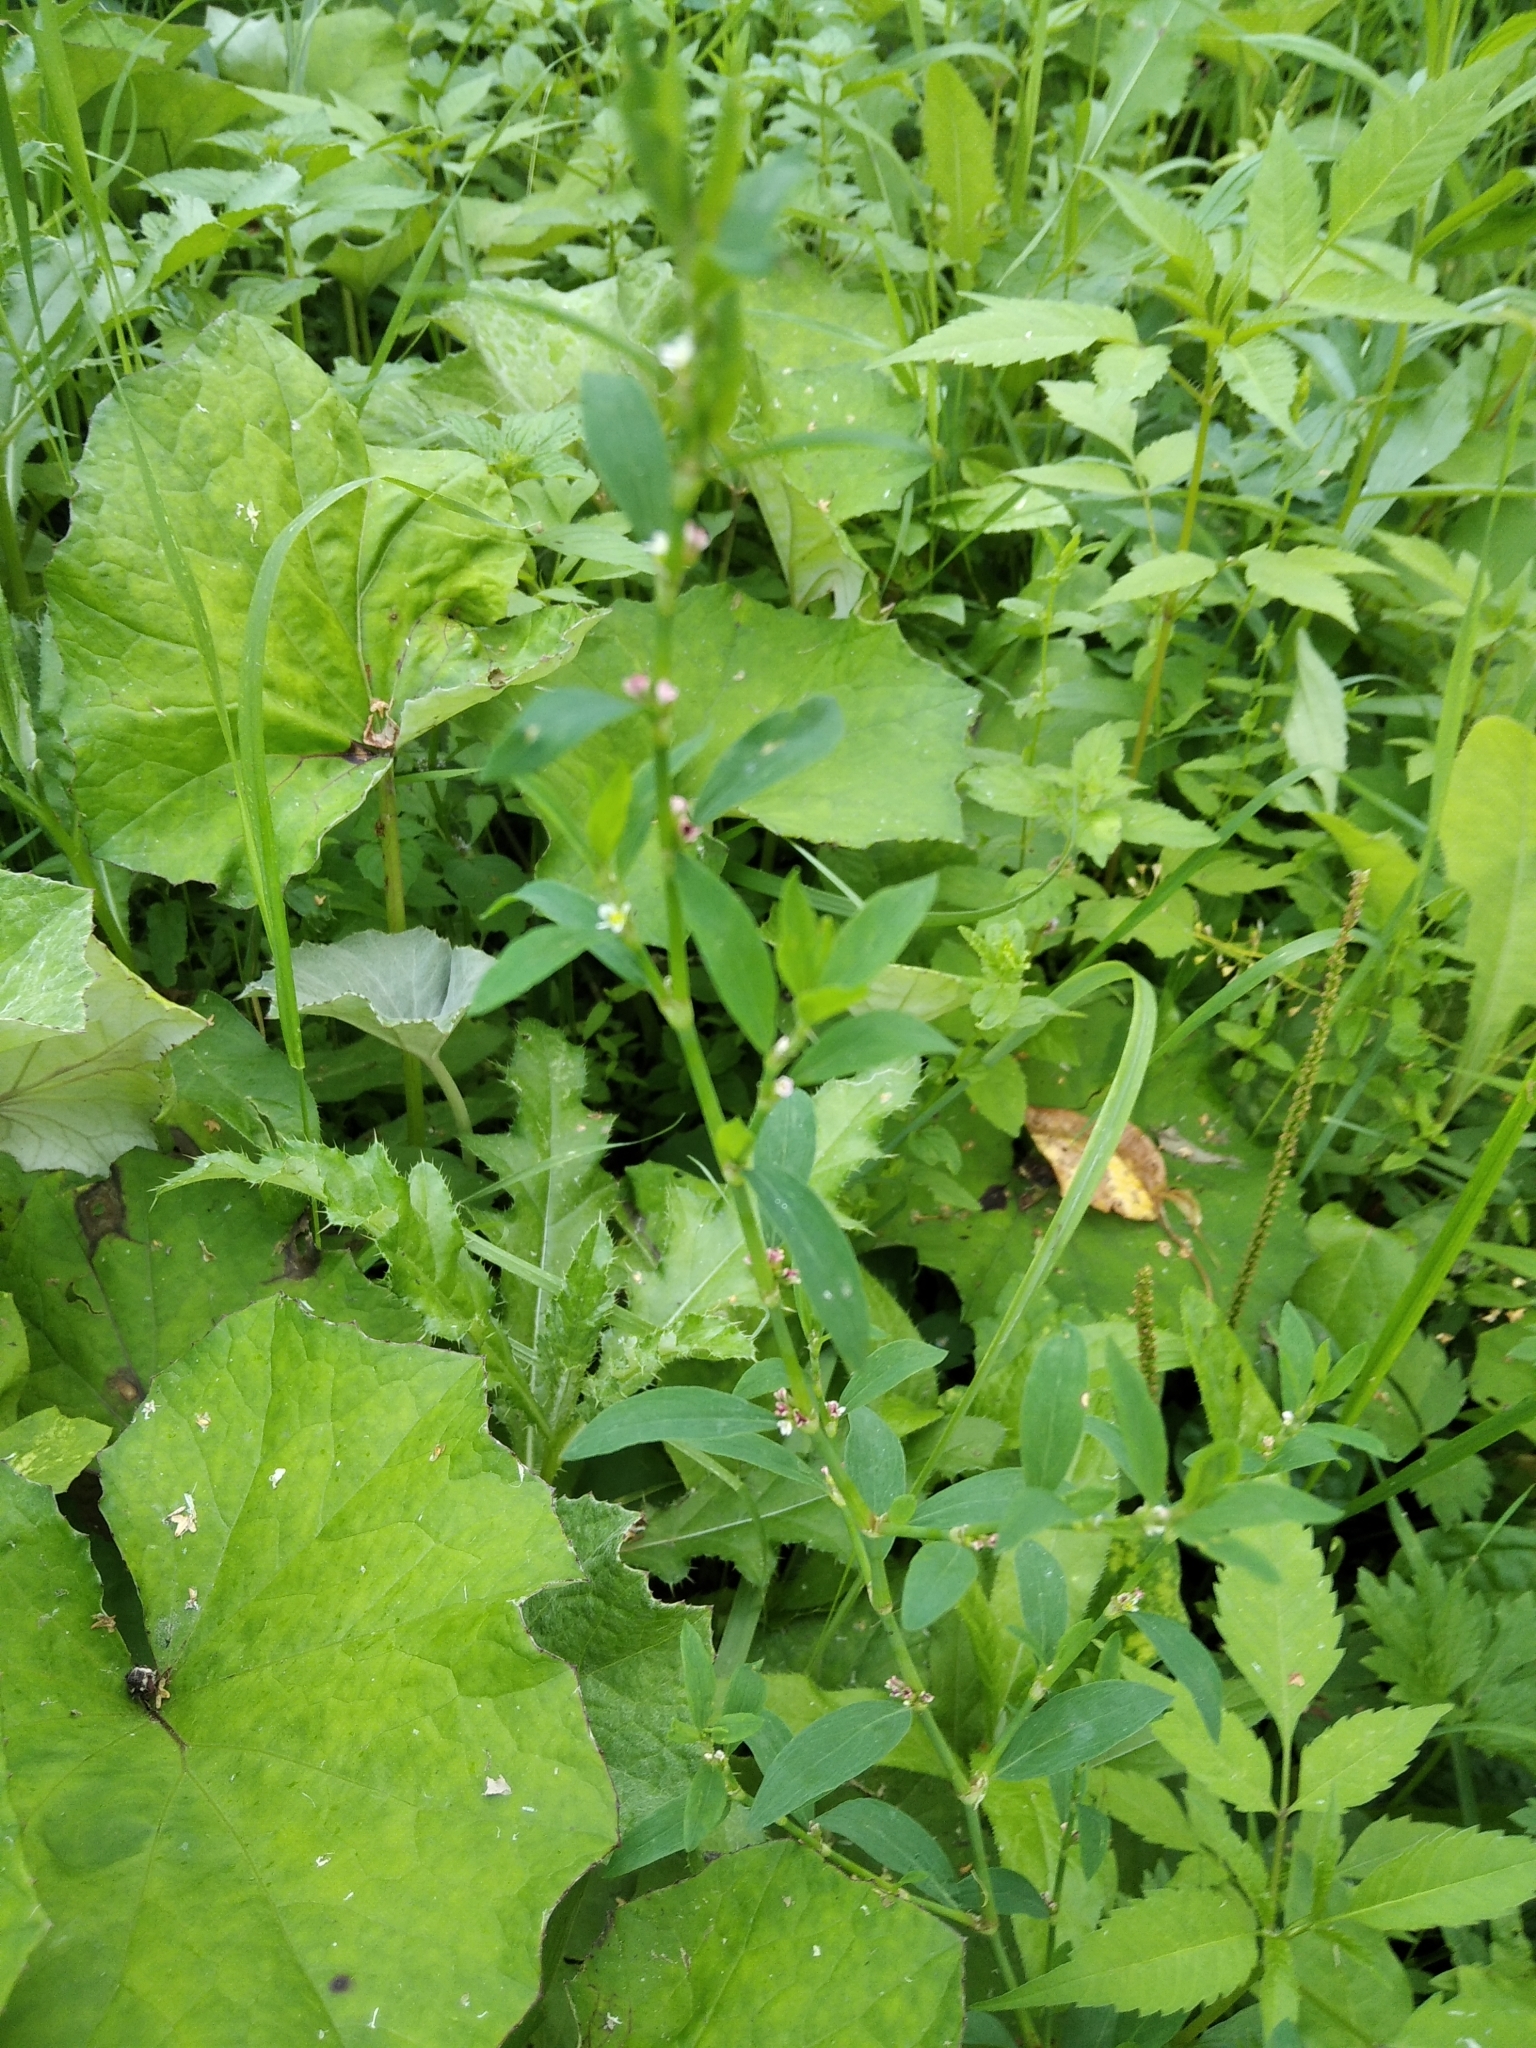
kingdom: Plantae
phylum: Tracheophyta
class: Magnoliopsida
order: Caryophyllales
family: Polygonaceae
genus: Polygonum
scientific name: Polygonum
